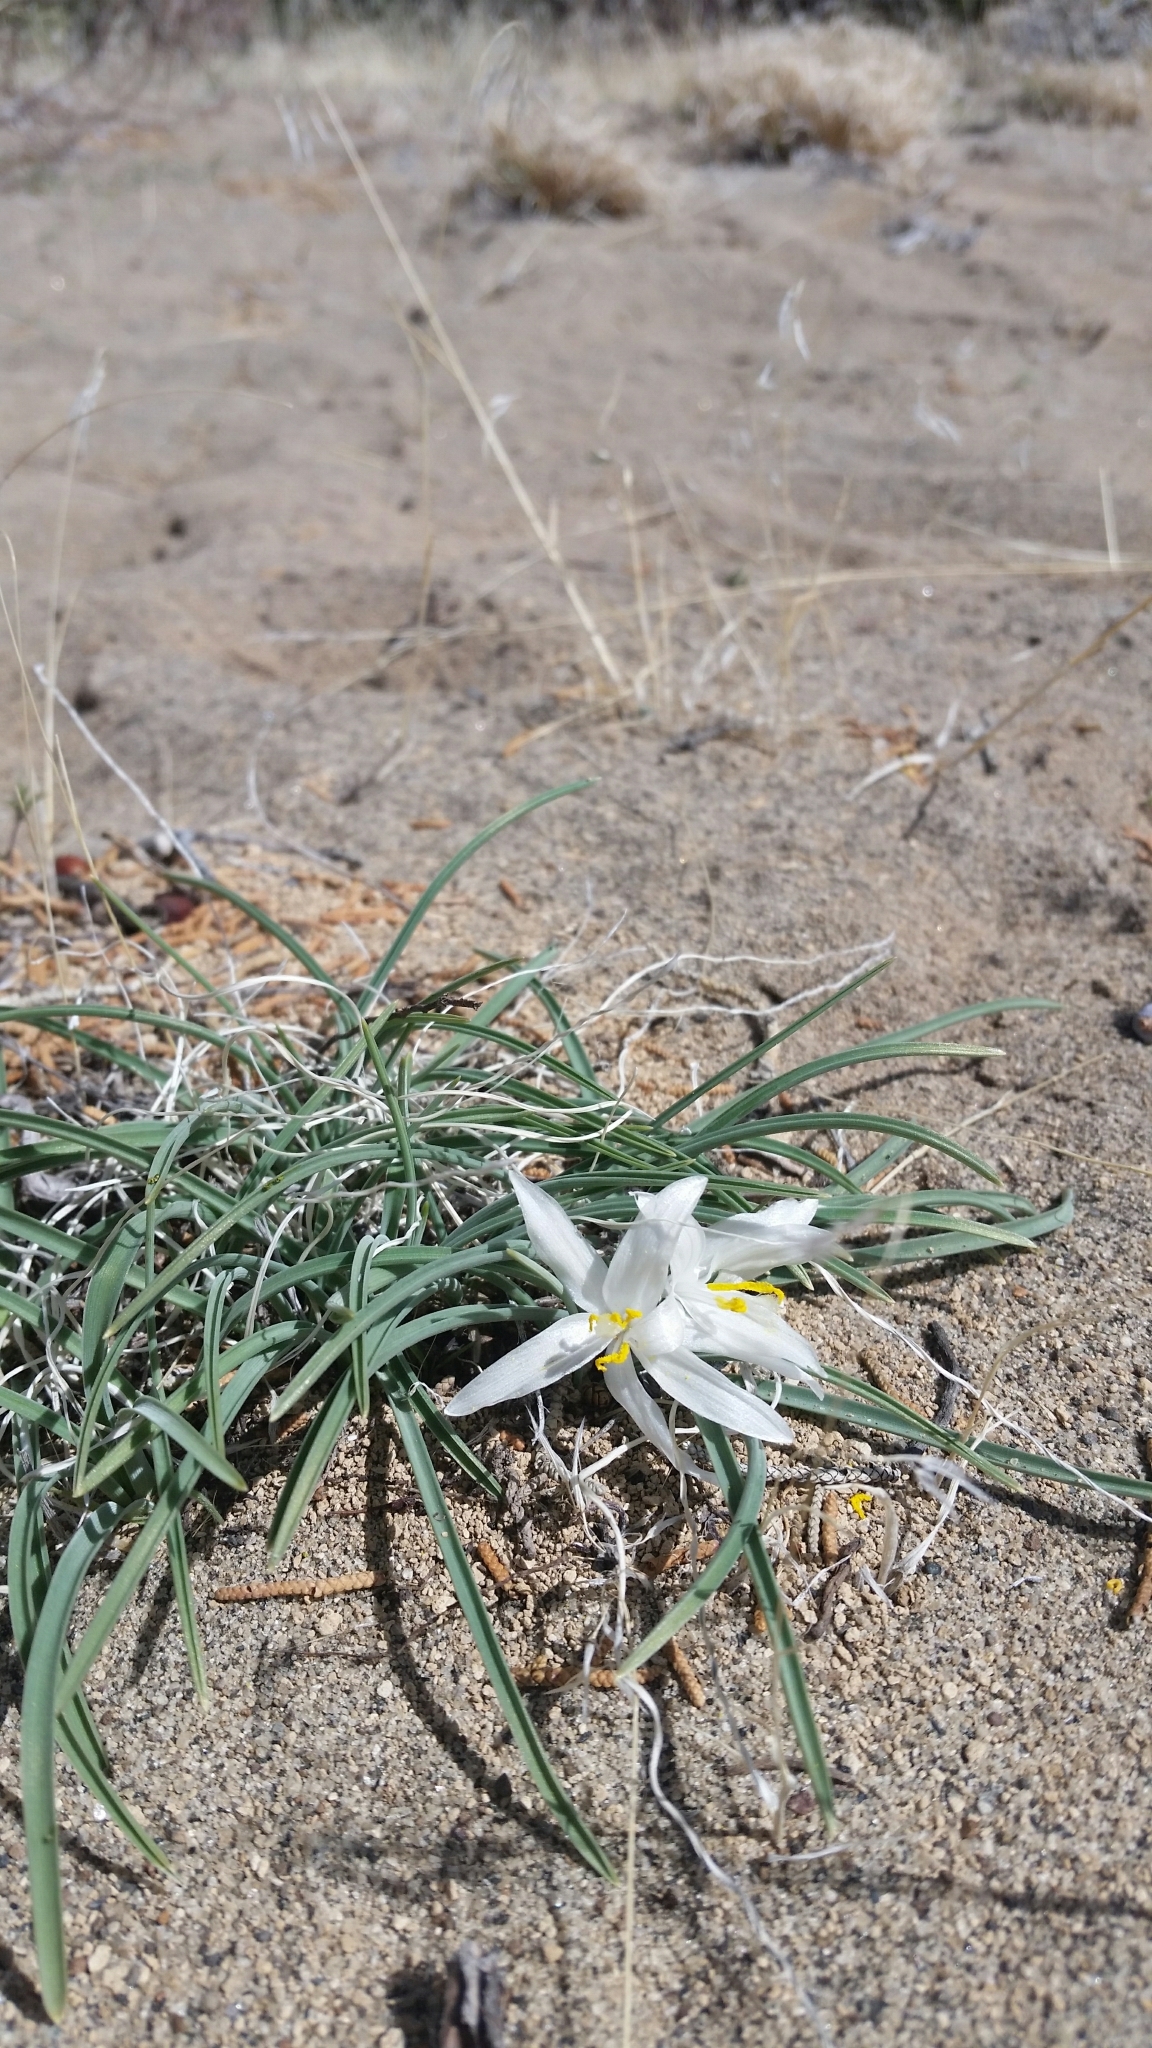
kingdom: Plantae
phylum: Tracheophyta
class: Liliopsida
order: Asparagales
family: Asparagaceae
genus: Leucocrinum
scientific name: Leucocrinum montanum
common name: Mountain-lily
